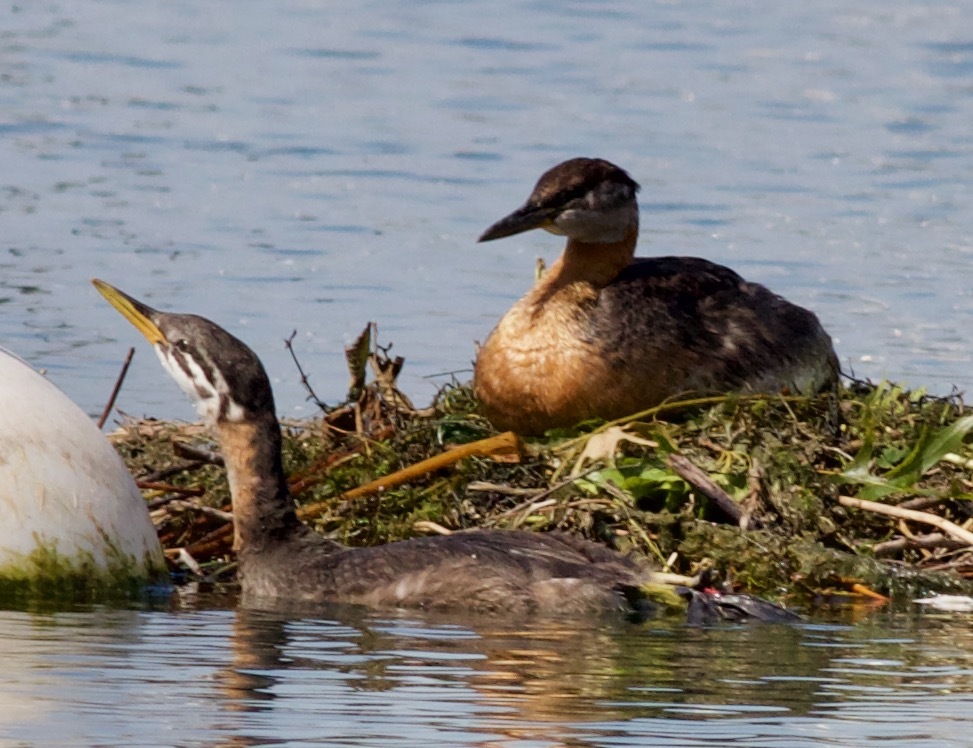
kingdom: Animalia
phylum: Chordata
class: Aves
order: Podicipediformes
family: Podicipedidae
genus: Podiceps
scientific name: Podiceps grisegena
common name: Red-necked grebe
